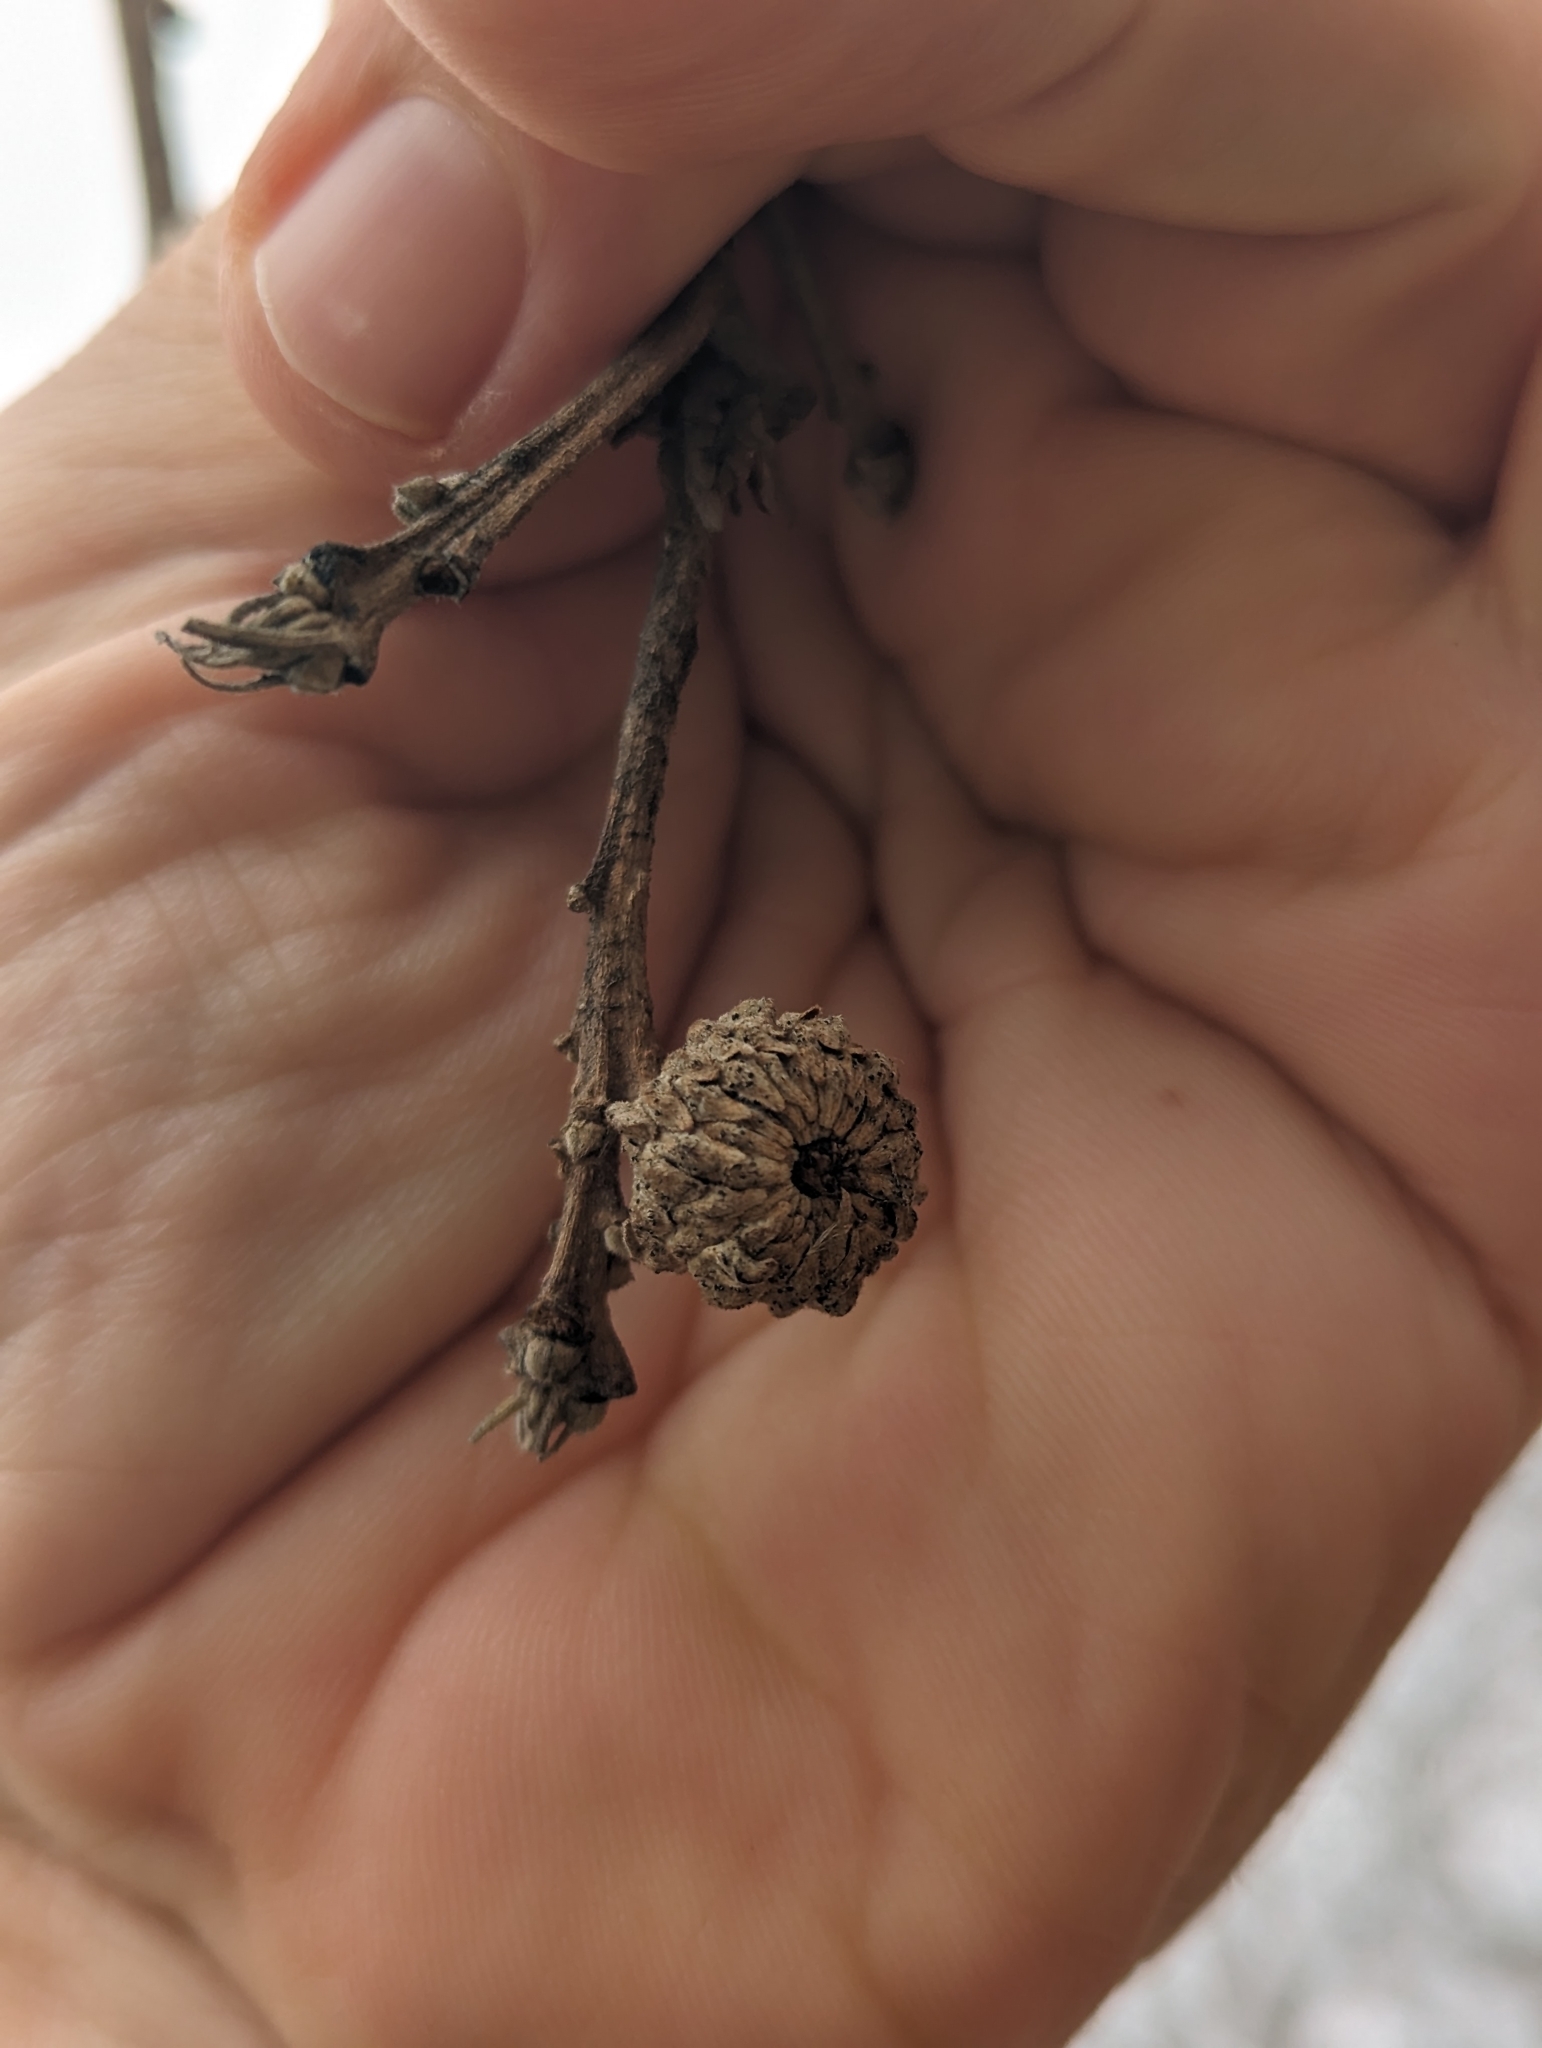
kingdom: Plantae
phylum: Tracheophyta
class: Magnoliopsida
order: Fagales
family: Fagaceae
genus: Quercus
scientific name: Quercus macrocarpa
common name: Bur oak
